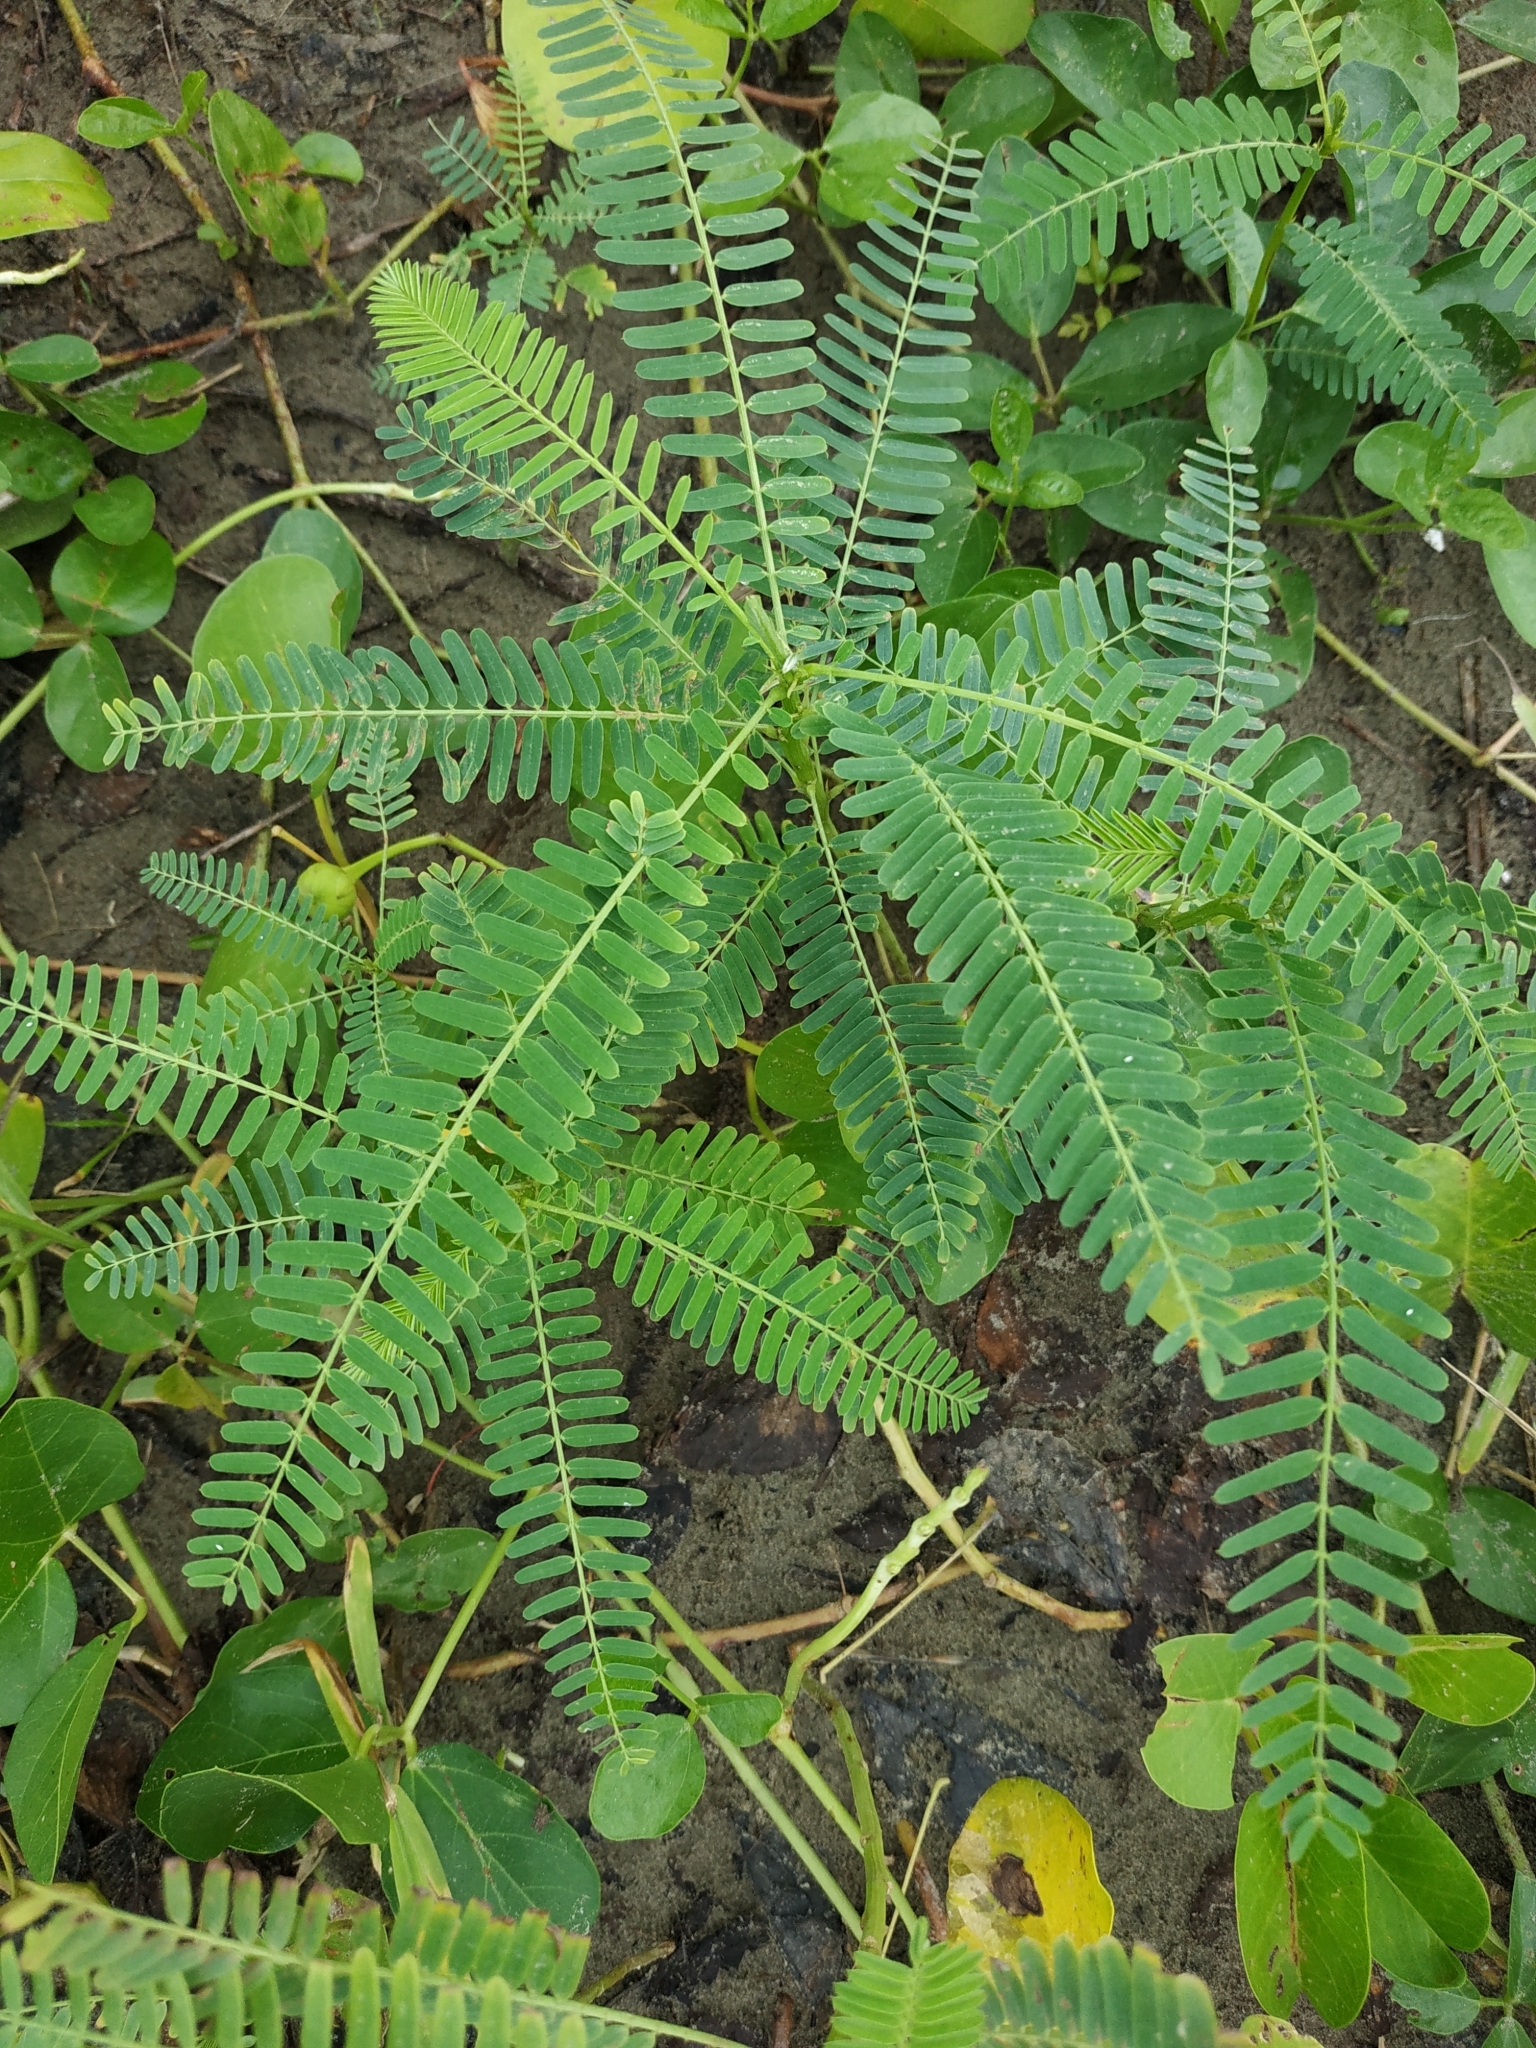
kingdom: Plantae
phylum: Tracheophyta
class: Magnoliopsida
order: Fabales
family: Fabaceae
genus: Sesbania
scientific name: Sesbania cannabina
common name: Canicha
